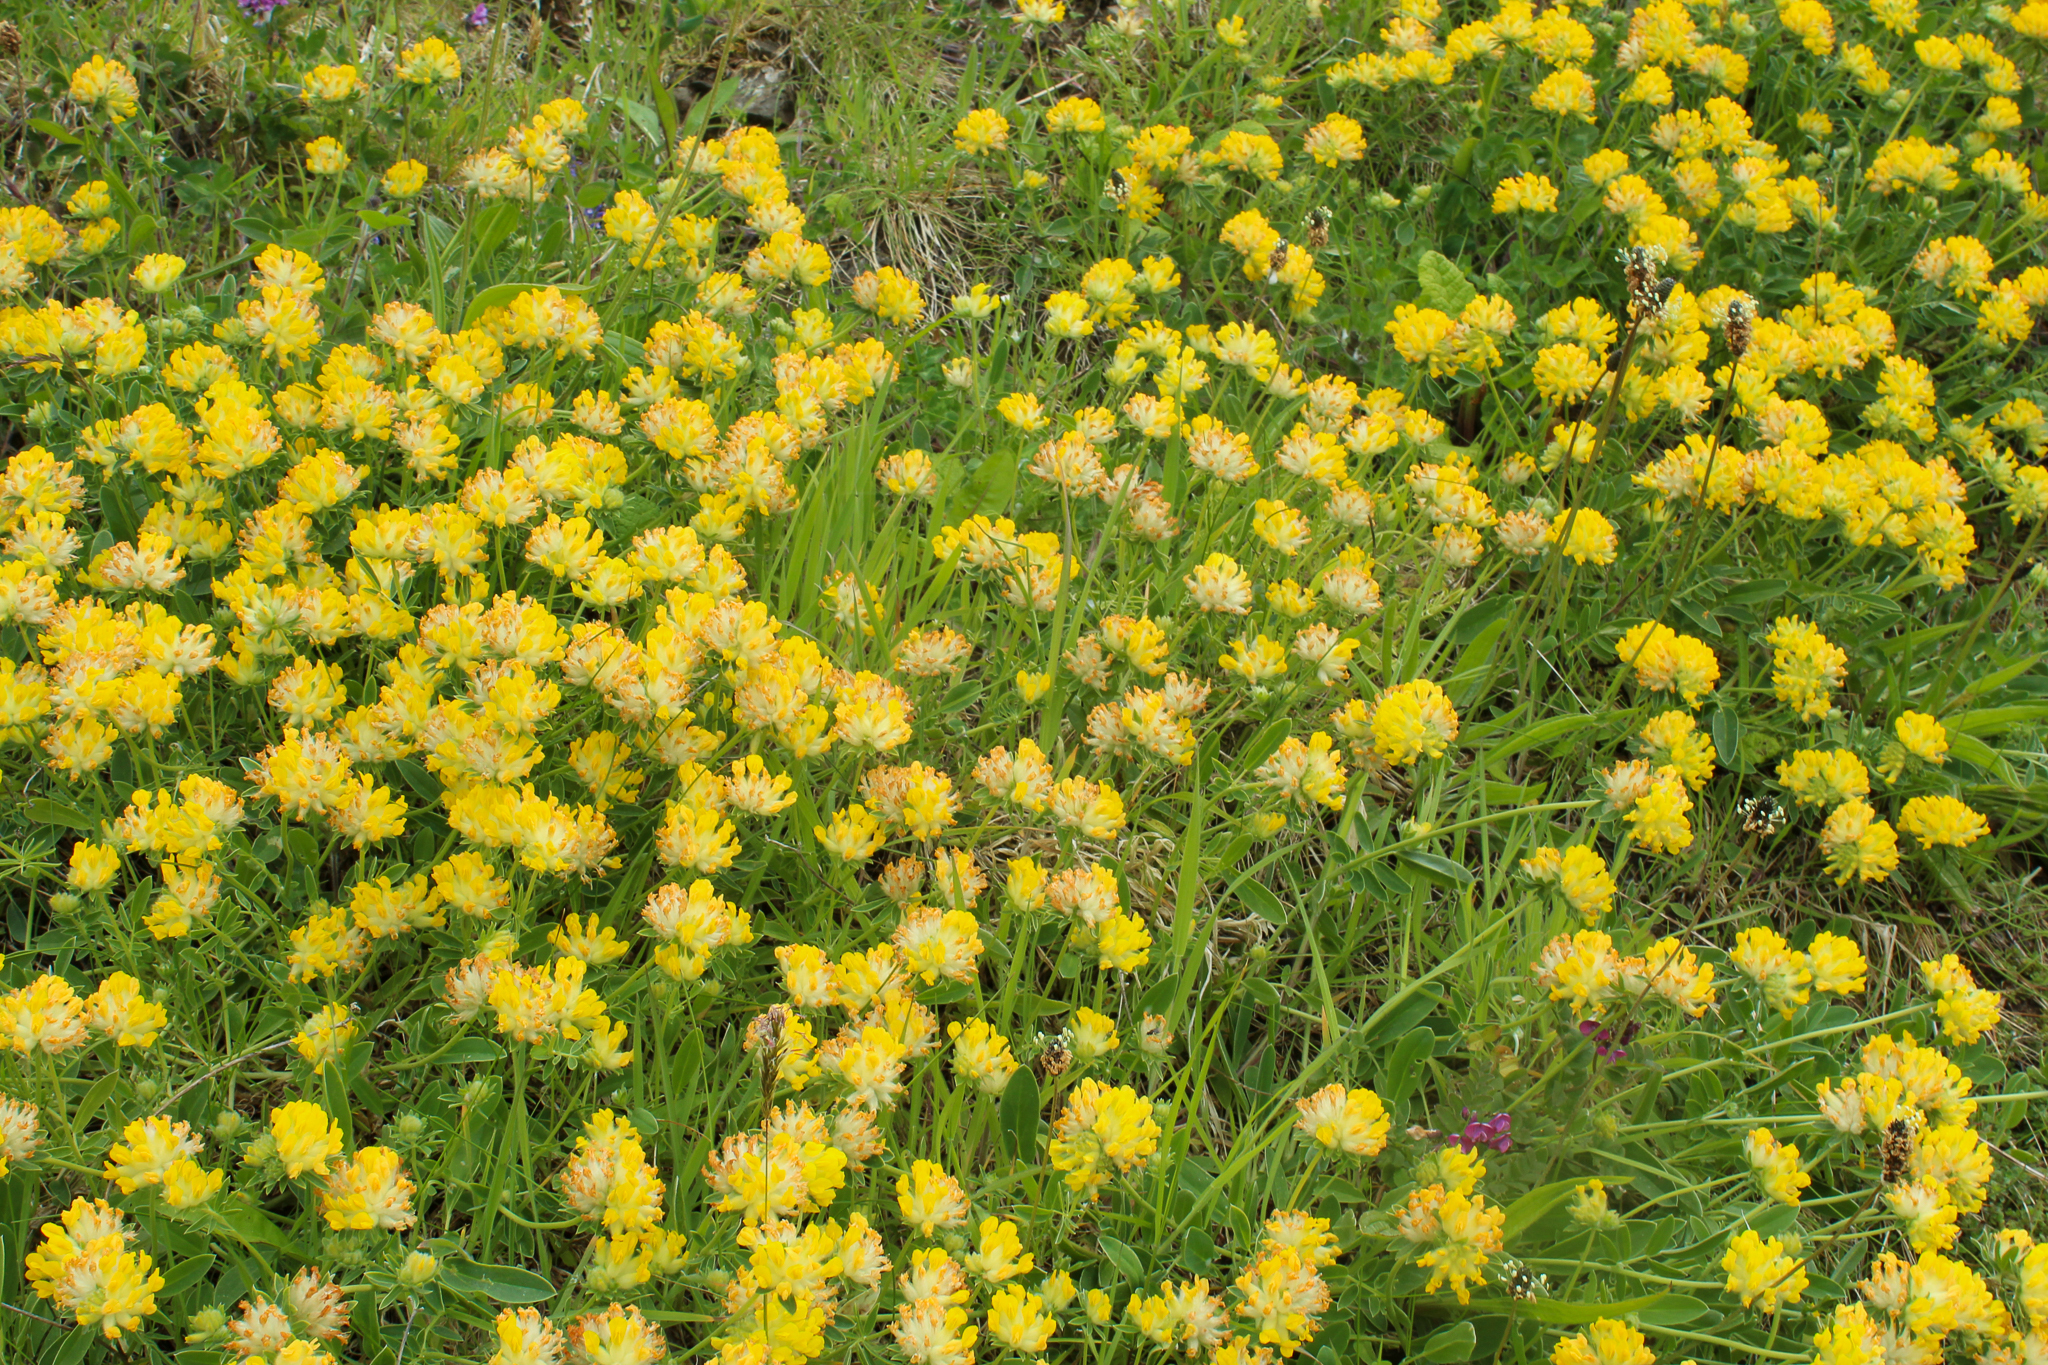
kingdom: Plantae
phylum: Tracheophyta
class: Magnoliopsida
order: Fabales
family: Fabaceae
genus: Anthyllis
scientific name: Anthyllis vulneraria
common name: Kidney vetch
